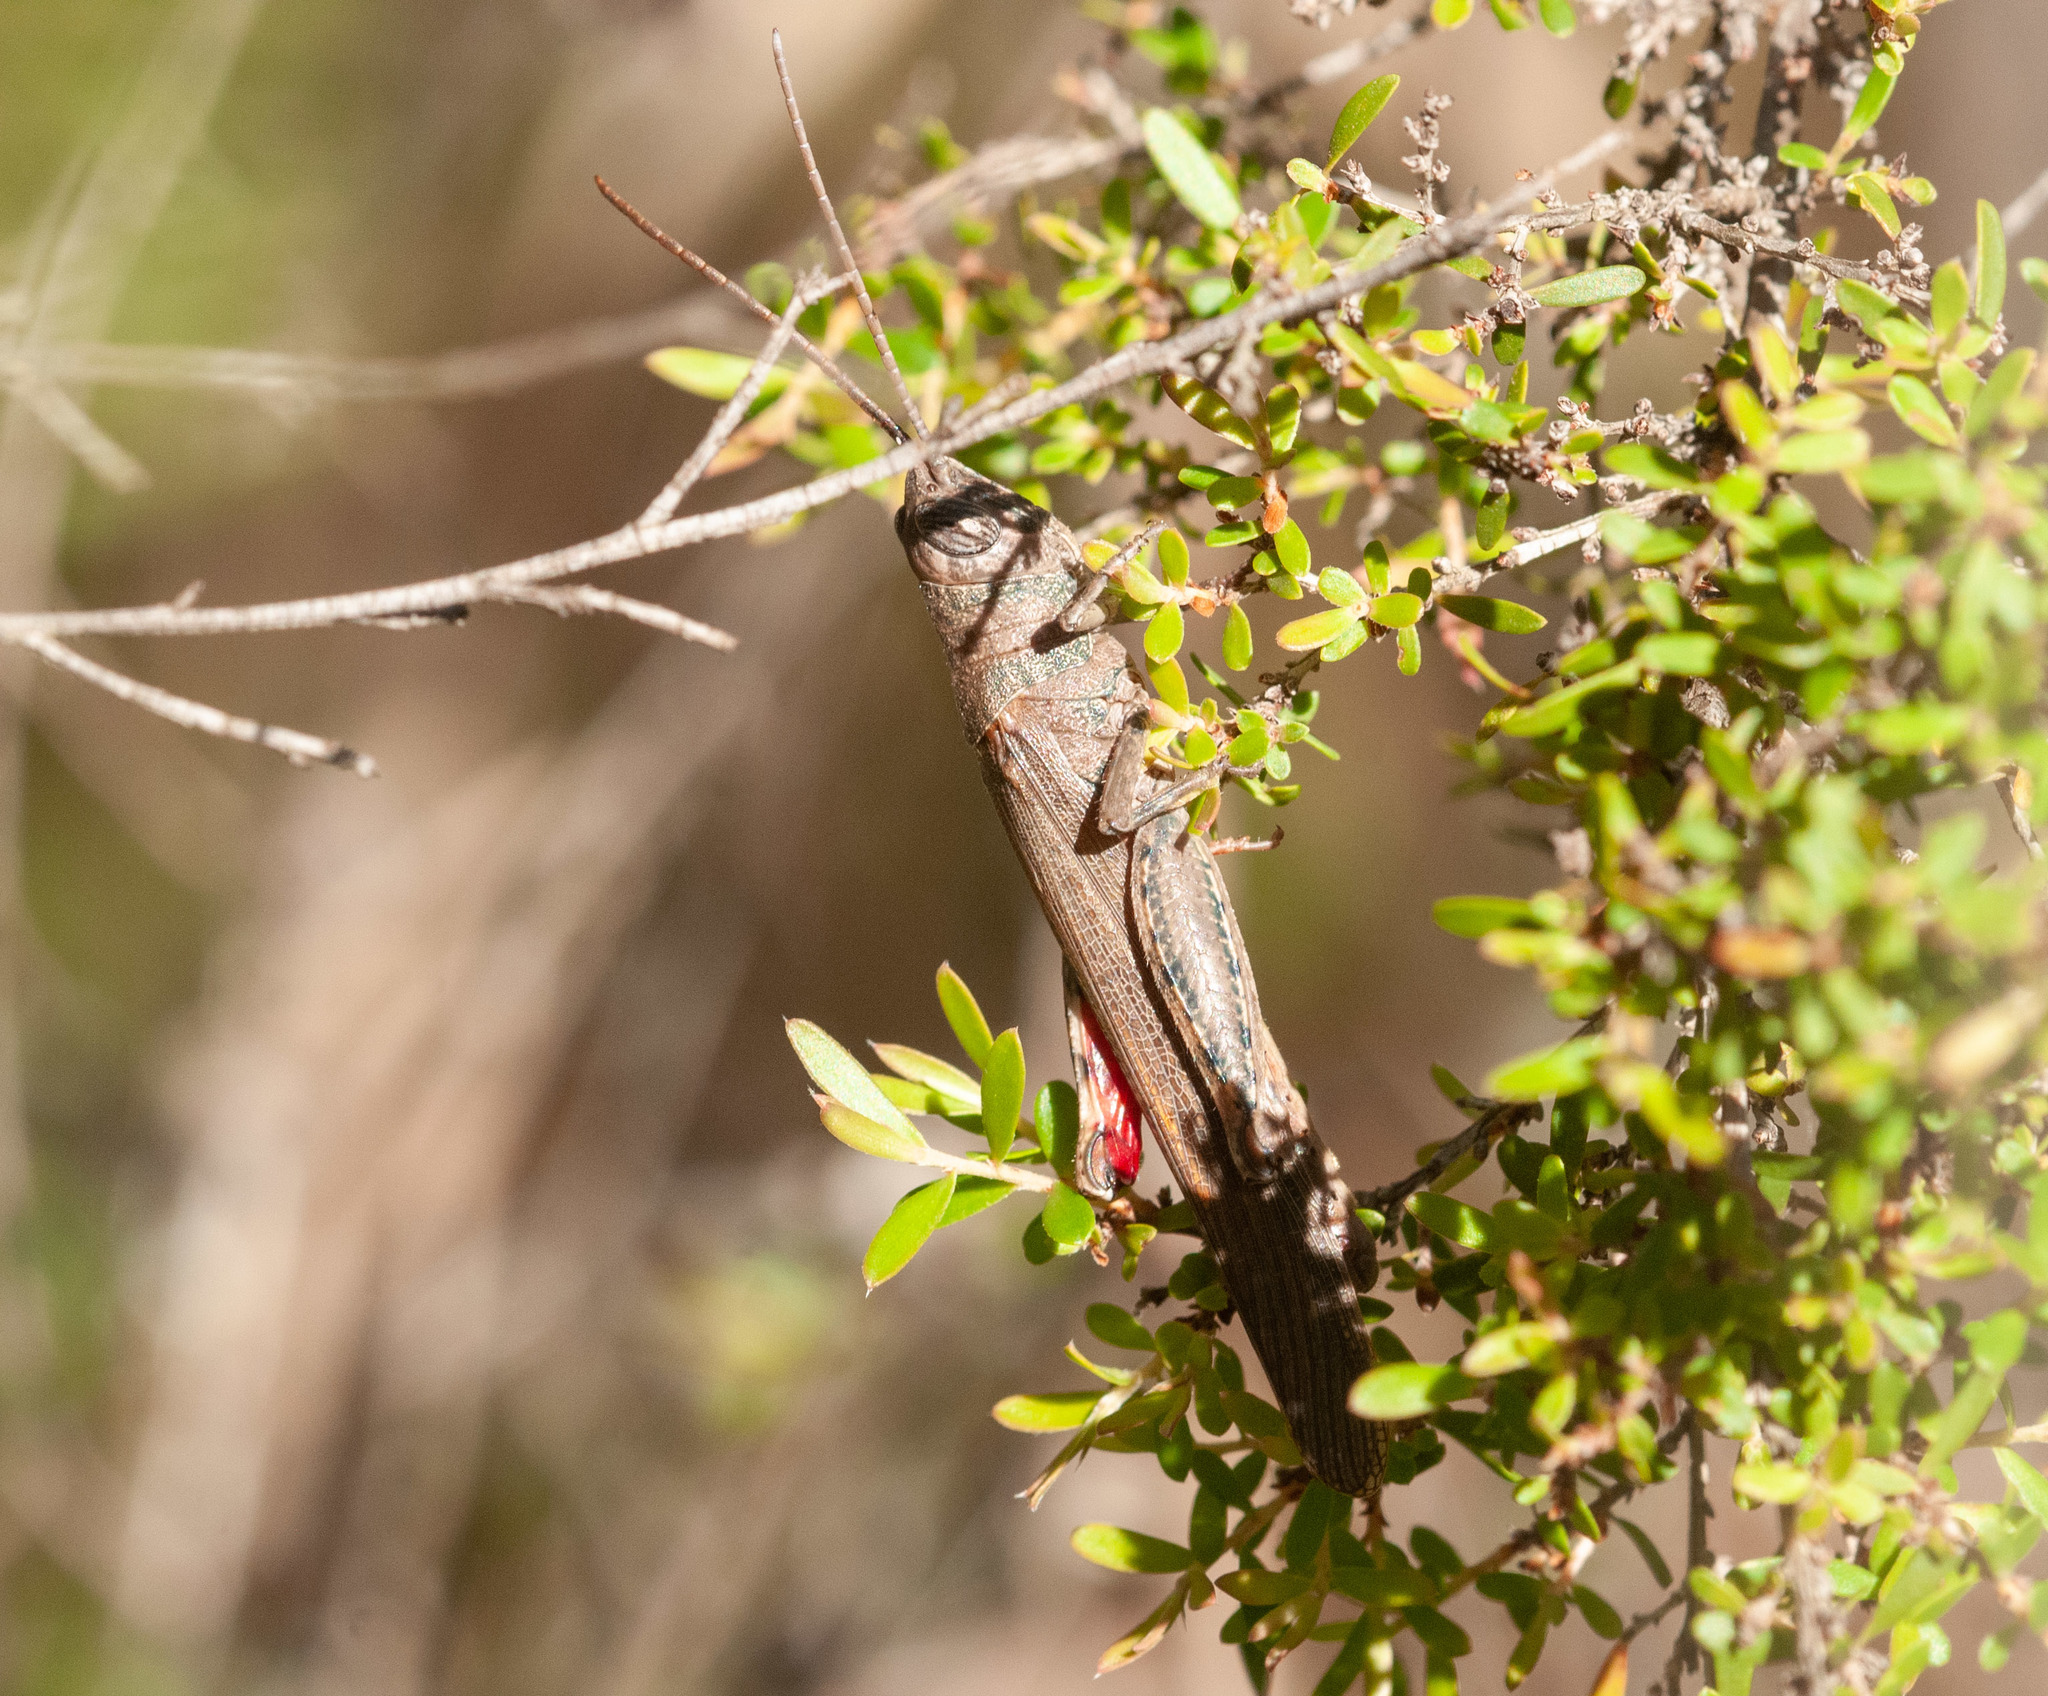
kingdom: Animalia
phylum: Arthropoda
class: Insecta
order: Orthoptera
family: Acrididae
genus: Pardillana
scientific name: Pardillana limbata
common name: Common pardillana
